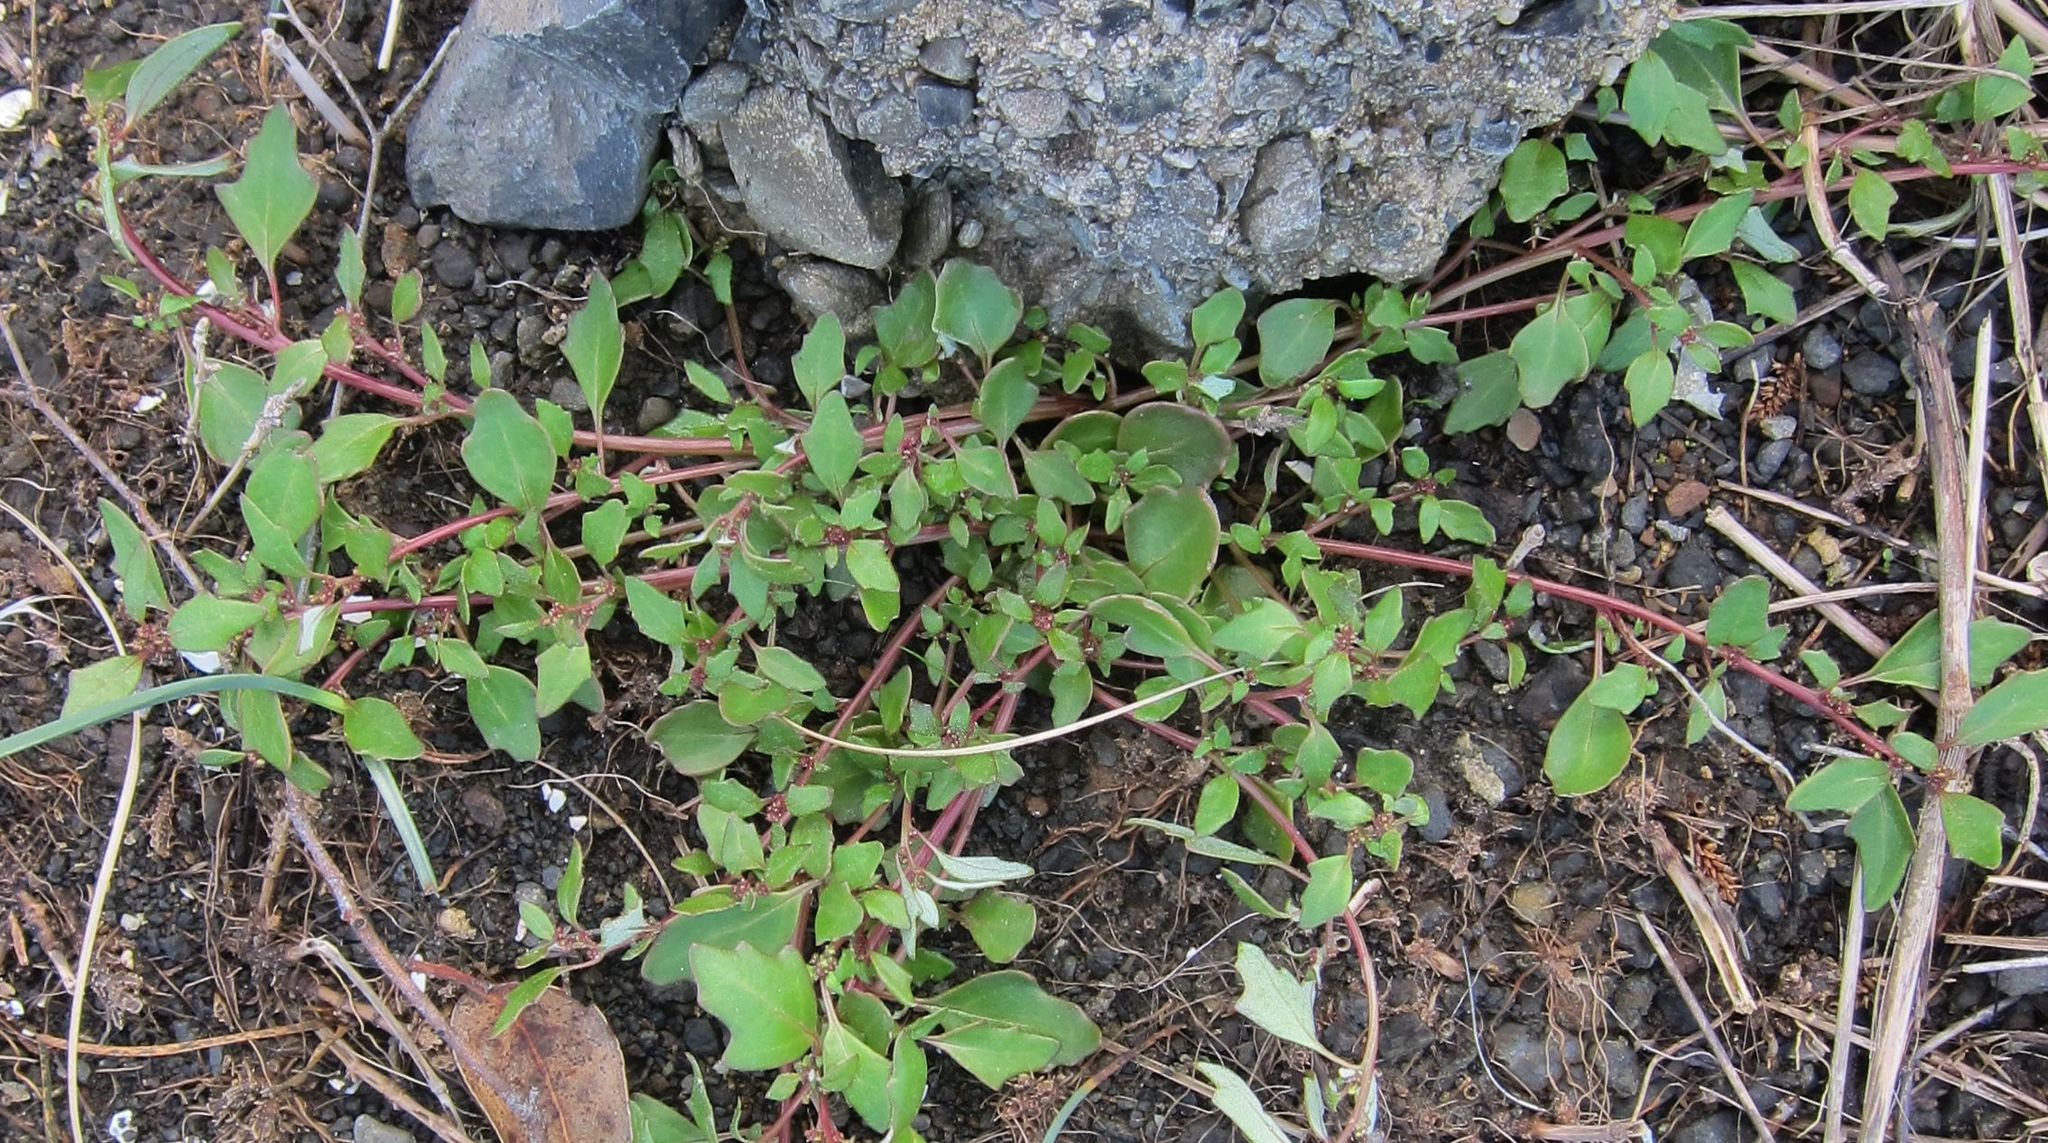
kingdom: Plantae
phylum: Tracheophyta
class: Magnoliopsida
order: Caryophyllales
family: Amaranthaceae
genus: Oxybasis
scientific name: Oxybasis ambigua
